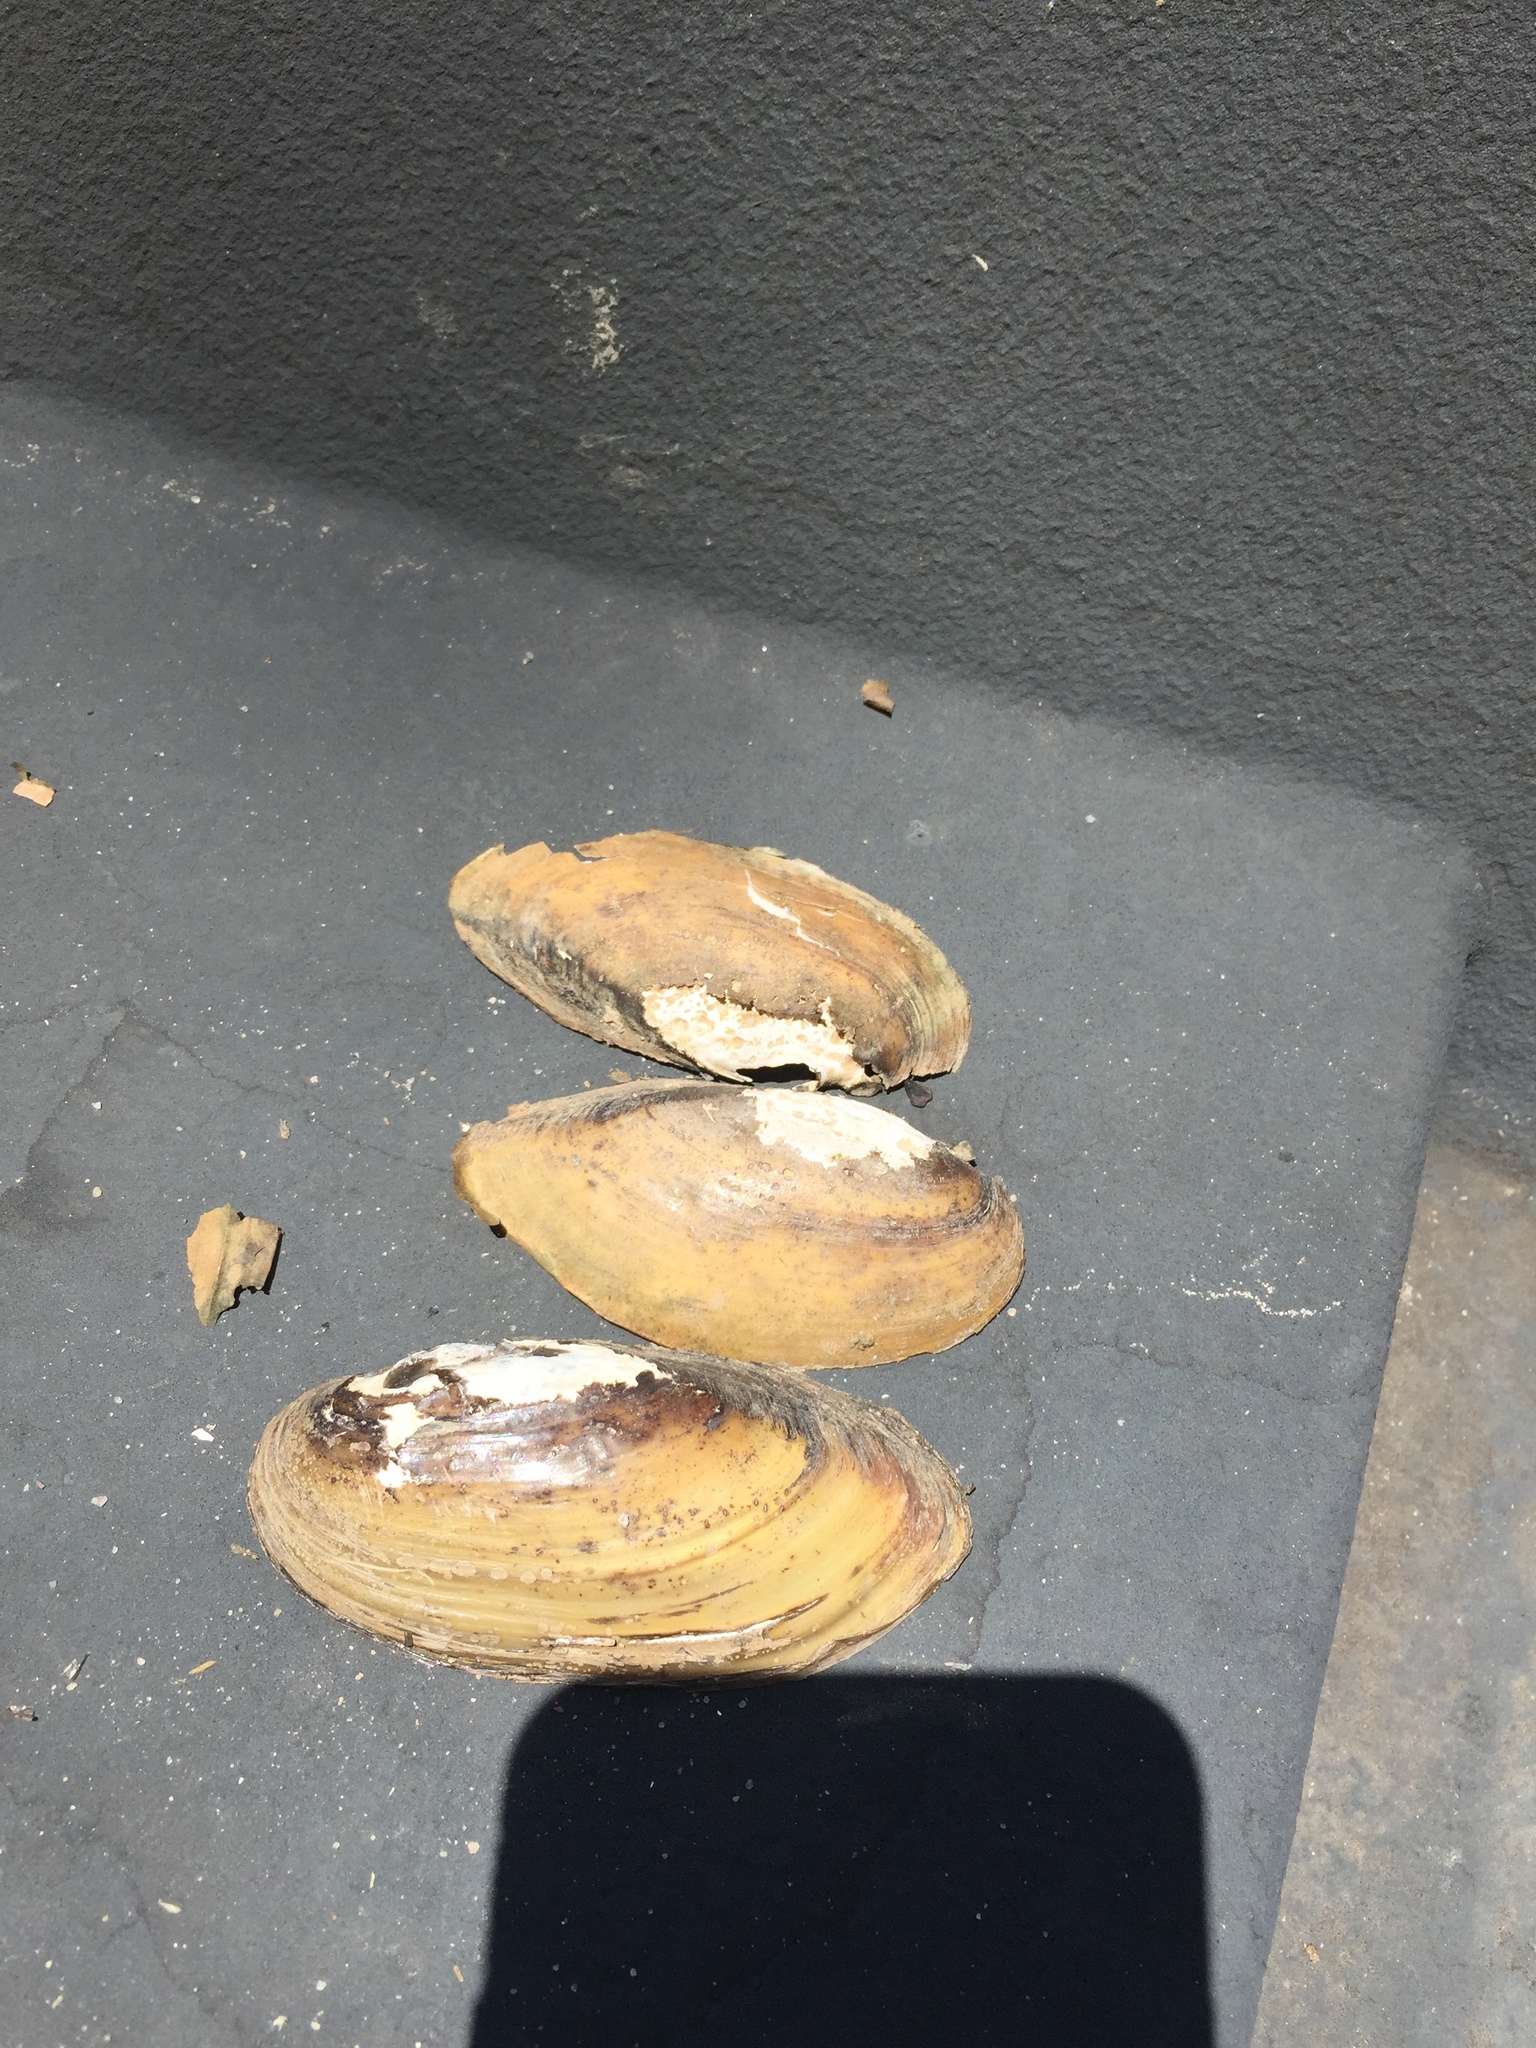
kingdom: Animalia
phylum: Mollusca
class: Bivalvia
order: Unionida
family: Unionidae
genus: Lampsilis
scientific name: Lampsilis teres
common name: Yellow sandshell
